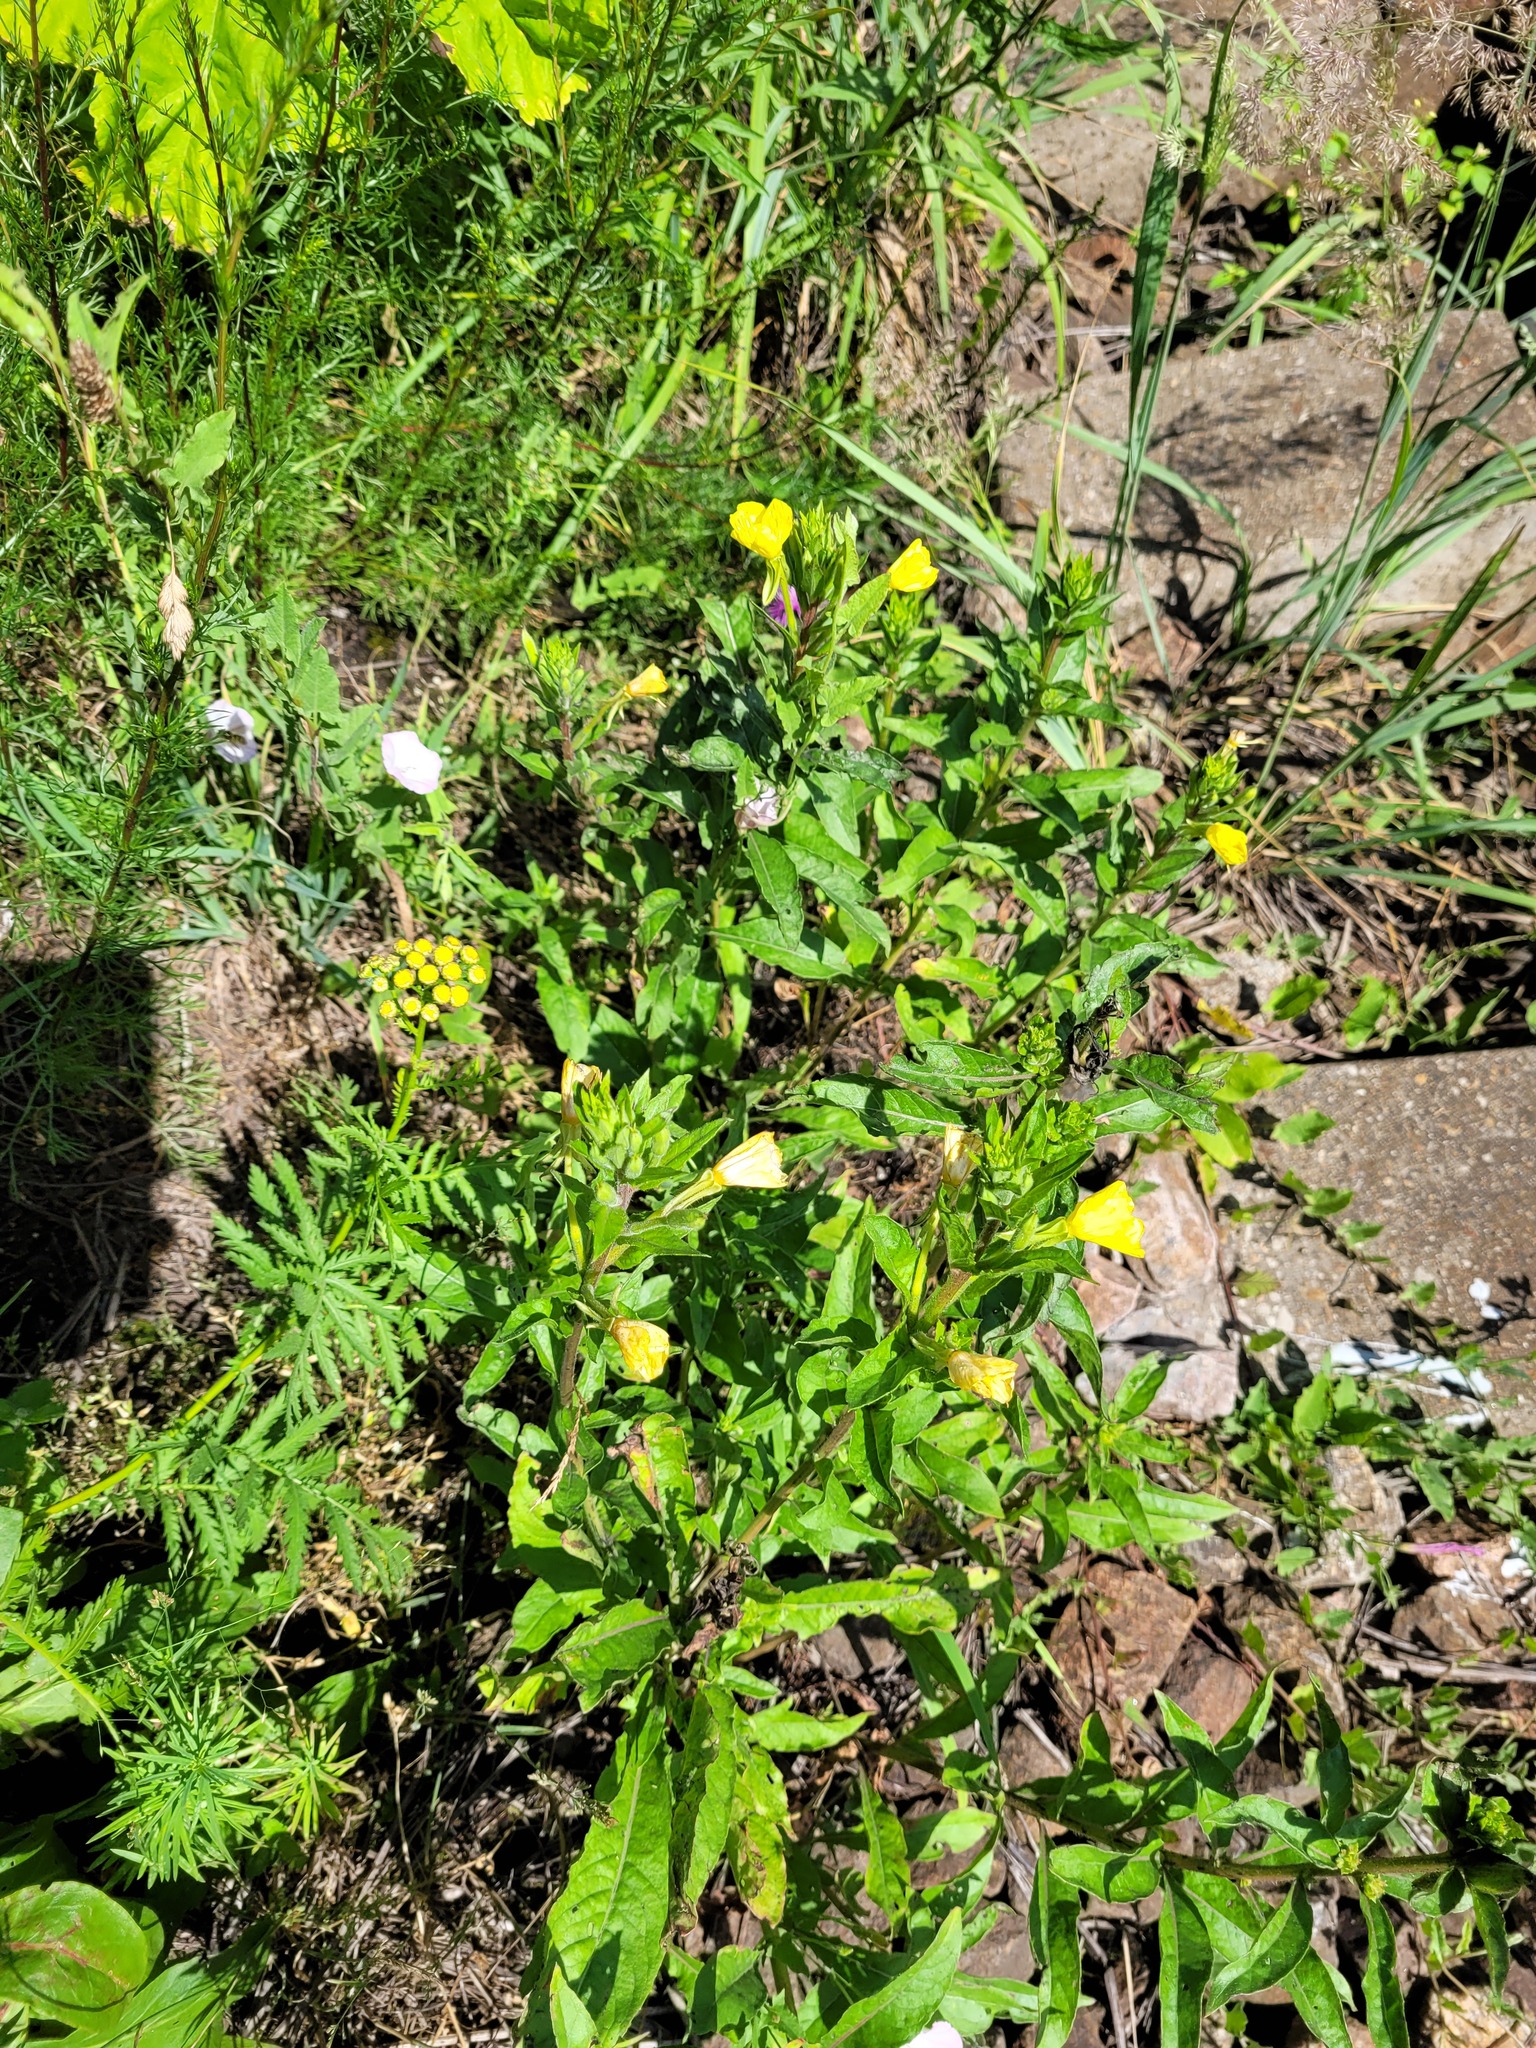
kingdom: Plantae
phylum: Tracheophyta
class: Magnoliopsida
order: Myrtales
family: Onagraceae
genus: Oenothera
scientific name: Oenothera rubricaulis
